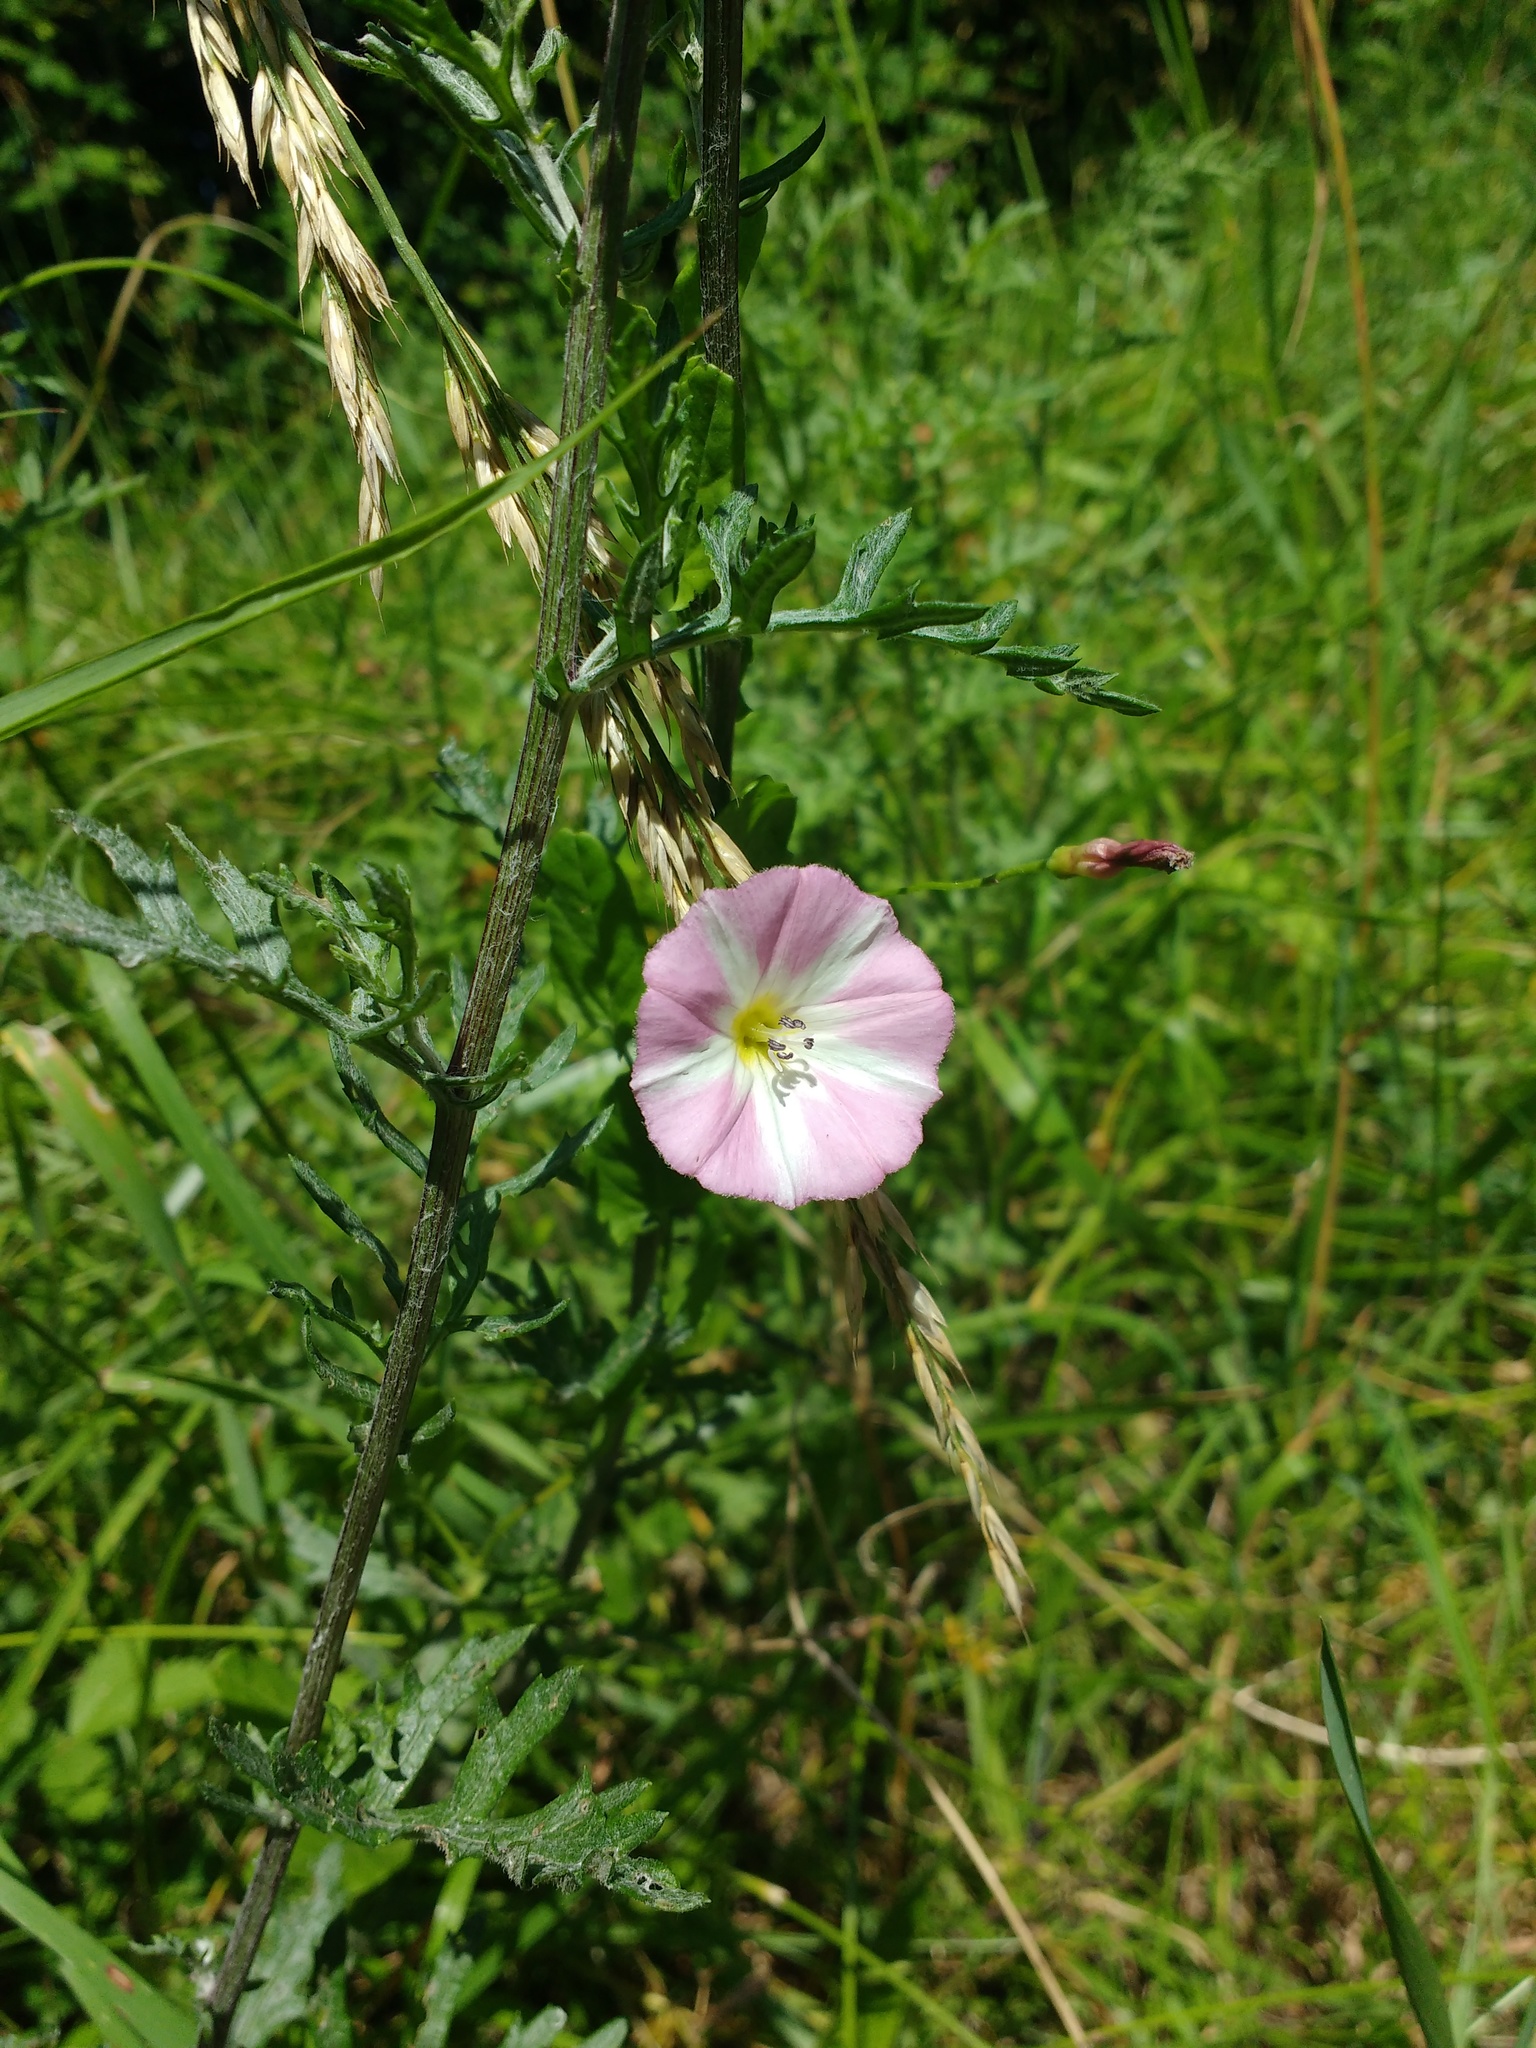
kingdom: Plantae
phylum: Tracheophyta
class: Magnoliopsida
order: Solanales
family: Convolvulaceae
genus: Convolvulus
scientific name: Convolvulus arvensis
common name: Field bindweed
